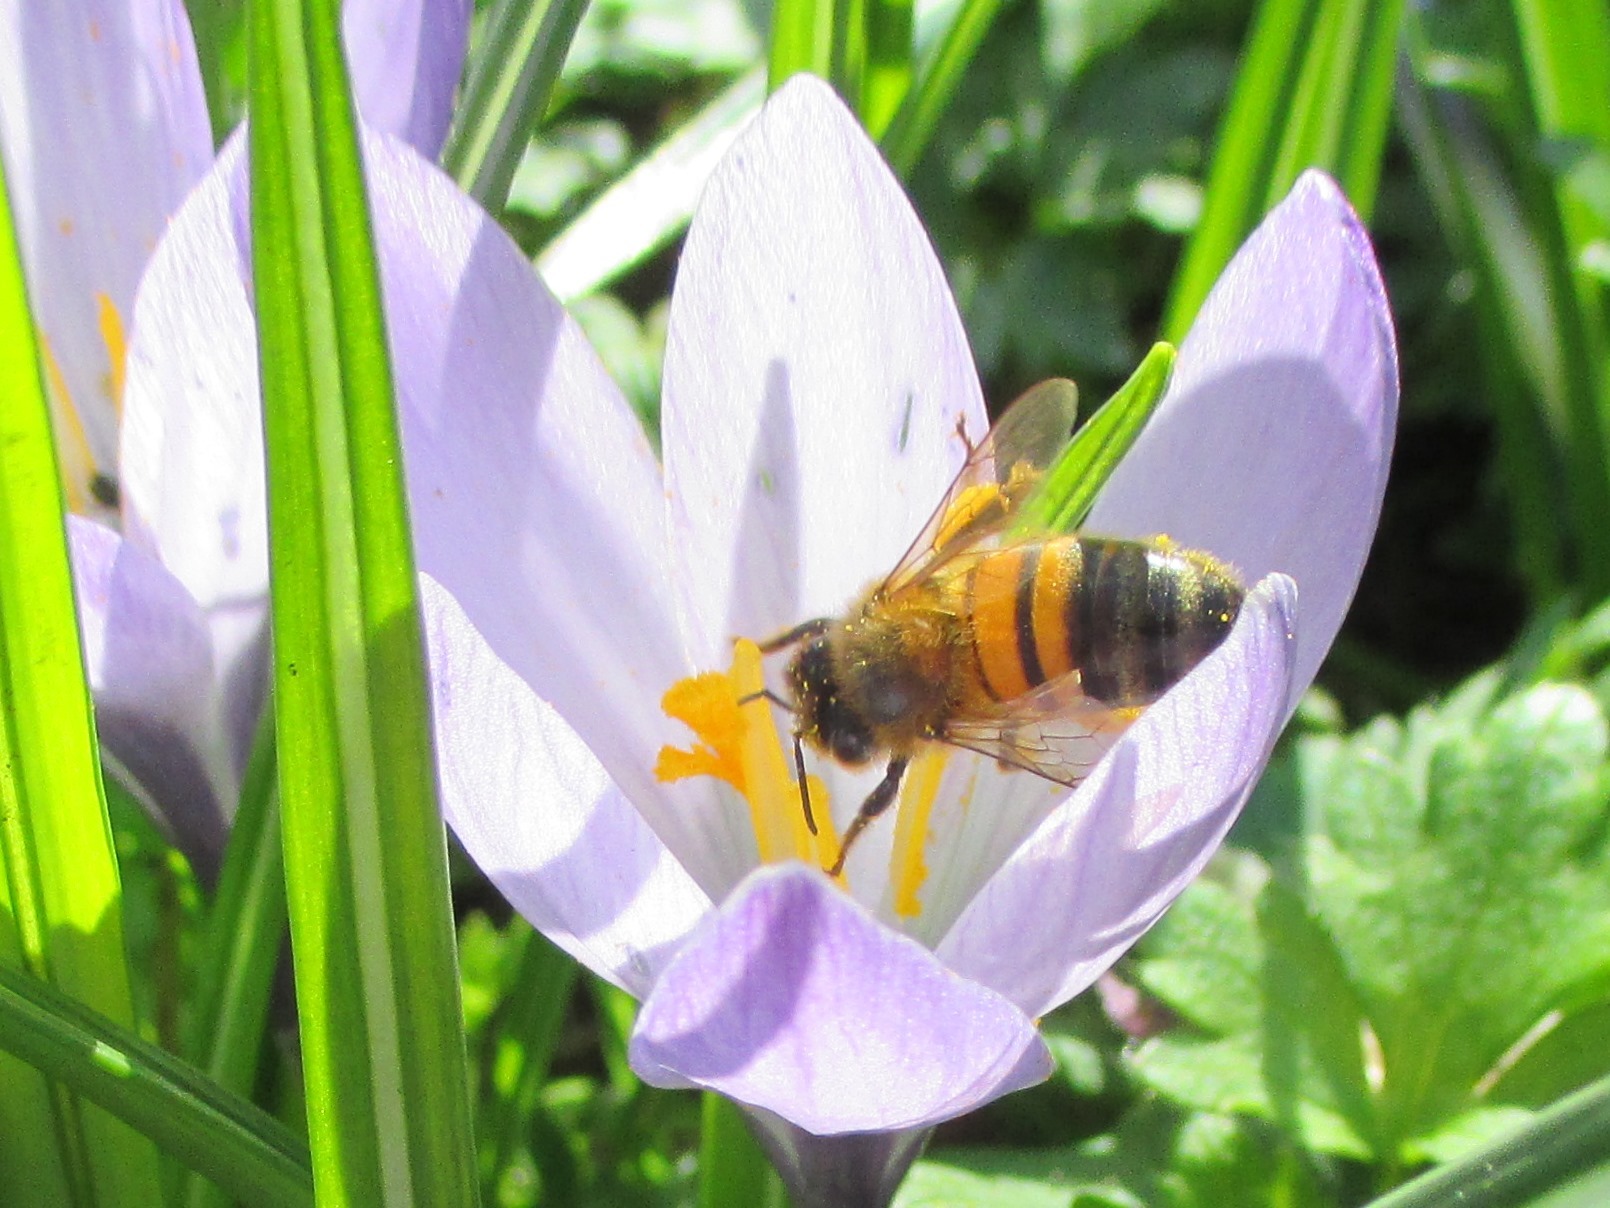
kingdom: Animalia
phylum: Arthropoda
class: Insecta
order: Hymenoptera
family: Apidae
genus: Apis
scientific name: Apis mellifera
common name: Honey bee
